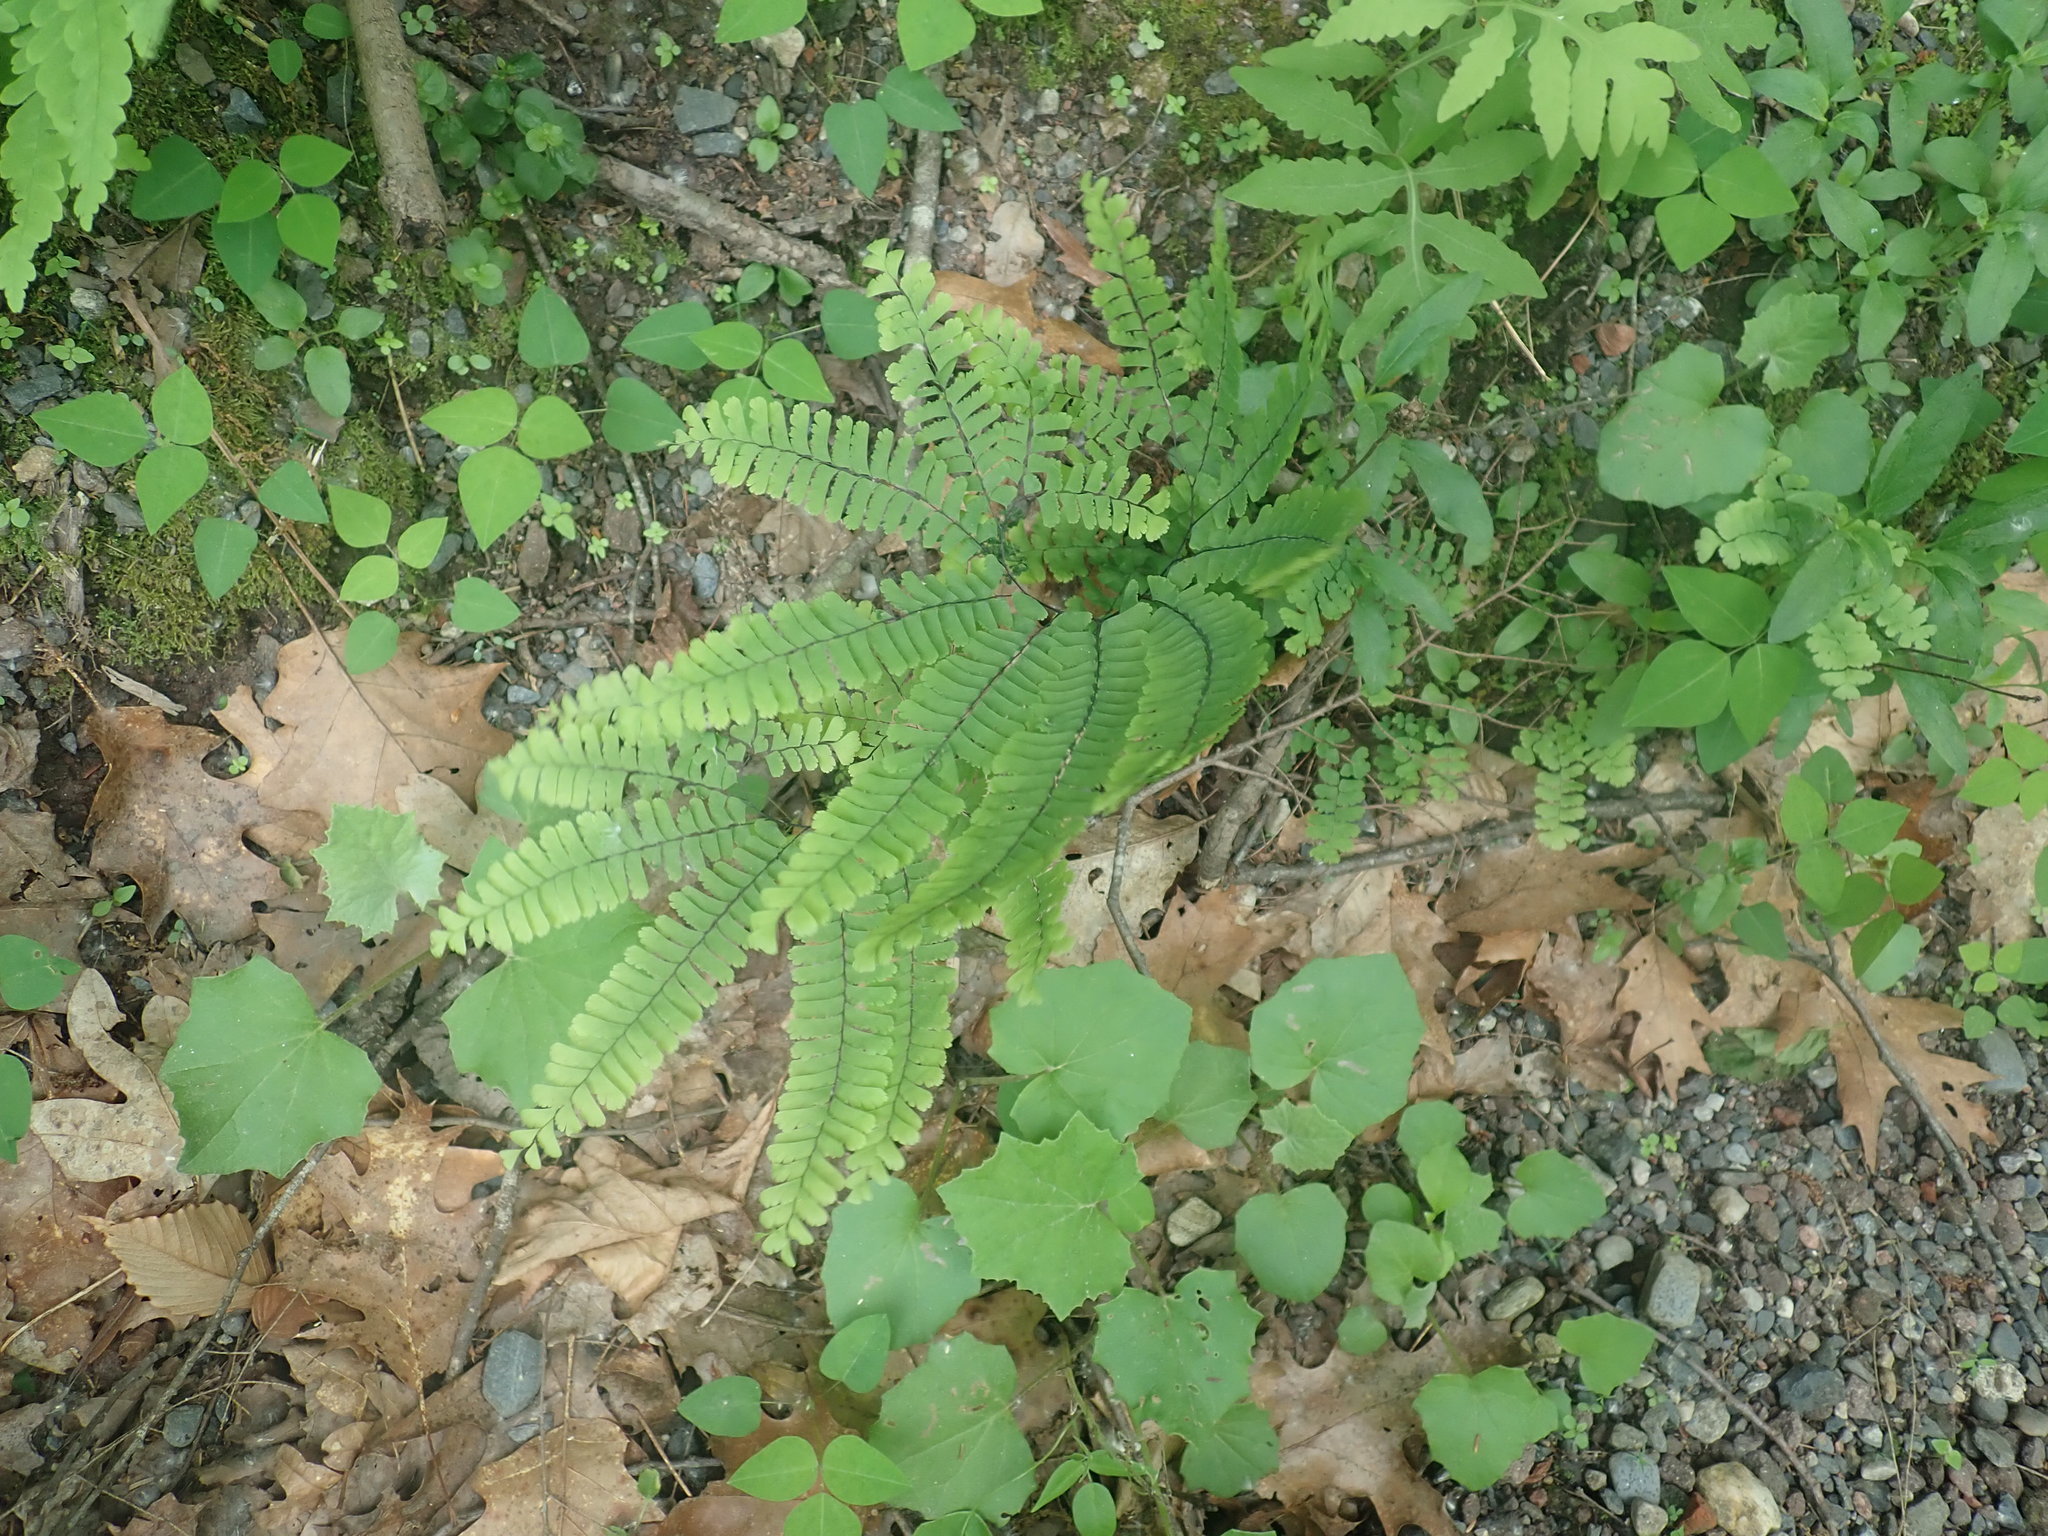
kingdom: Plantae
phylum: Tracheophyta
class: Polypodiopsida
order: Polypodiales
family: Pteridaceae
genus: Adiantum
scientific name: Adiantum pedatum
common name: Five-finger fern
